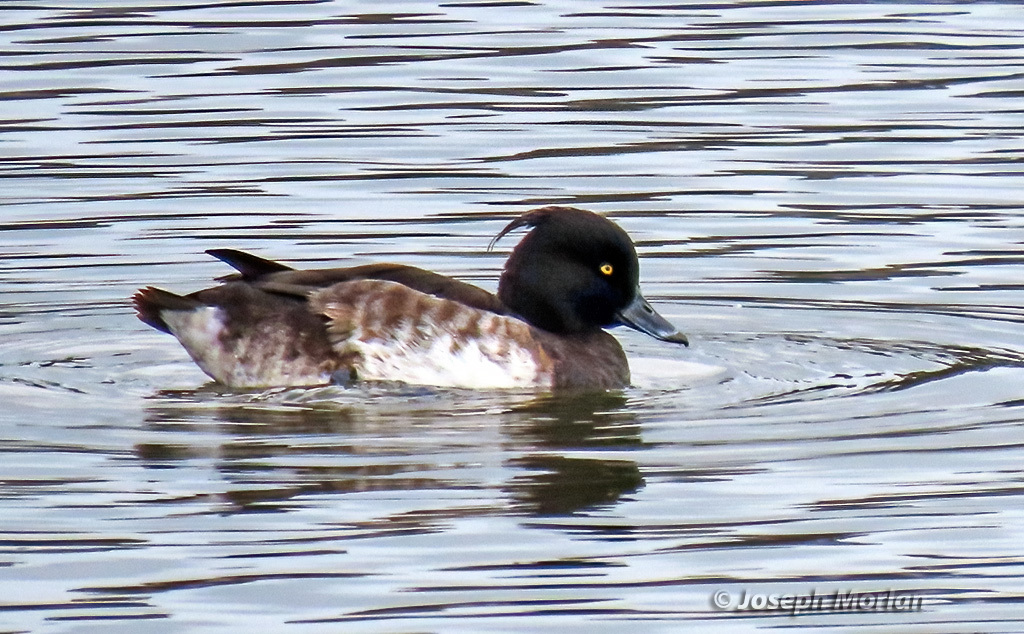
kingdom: Animalia
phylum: Chordata
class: Aves
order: Anseriformes
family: Anatidae
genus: Aythya
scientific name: Aythya fuligula
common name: Tufted duck
